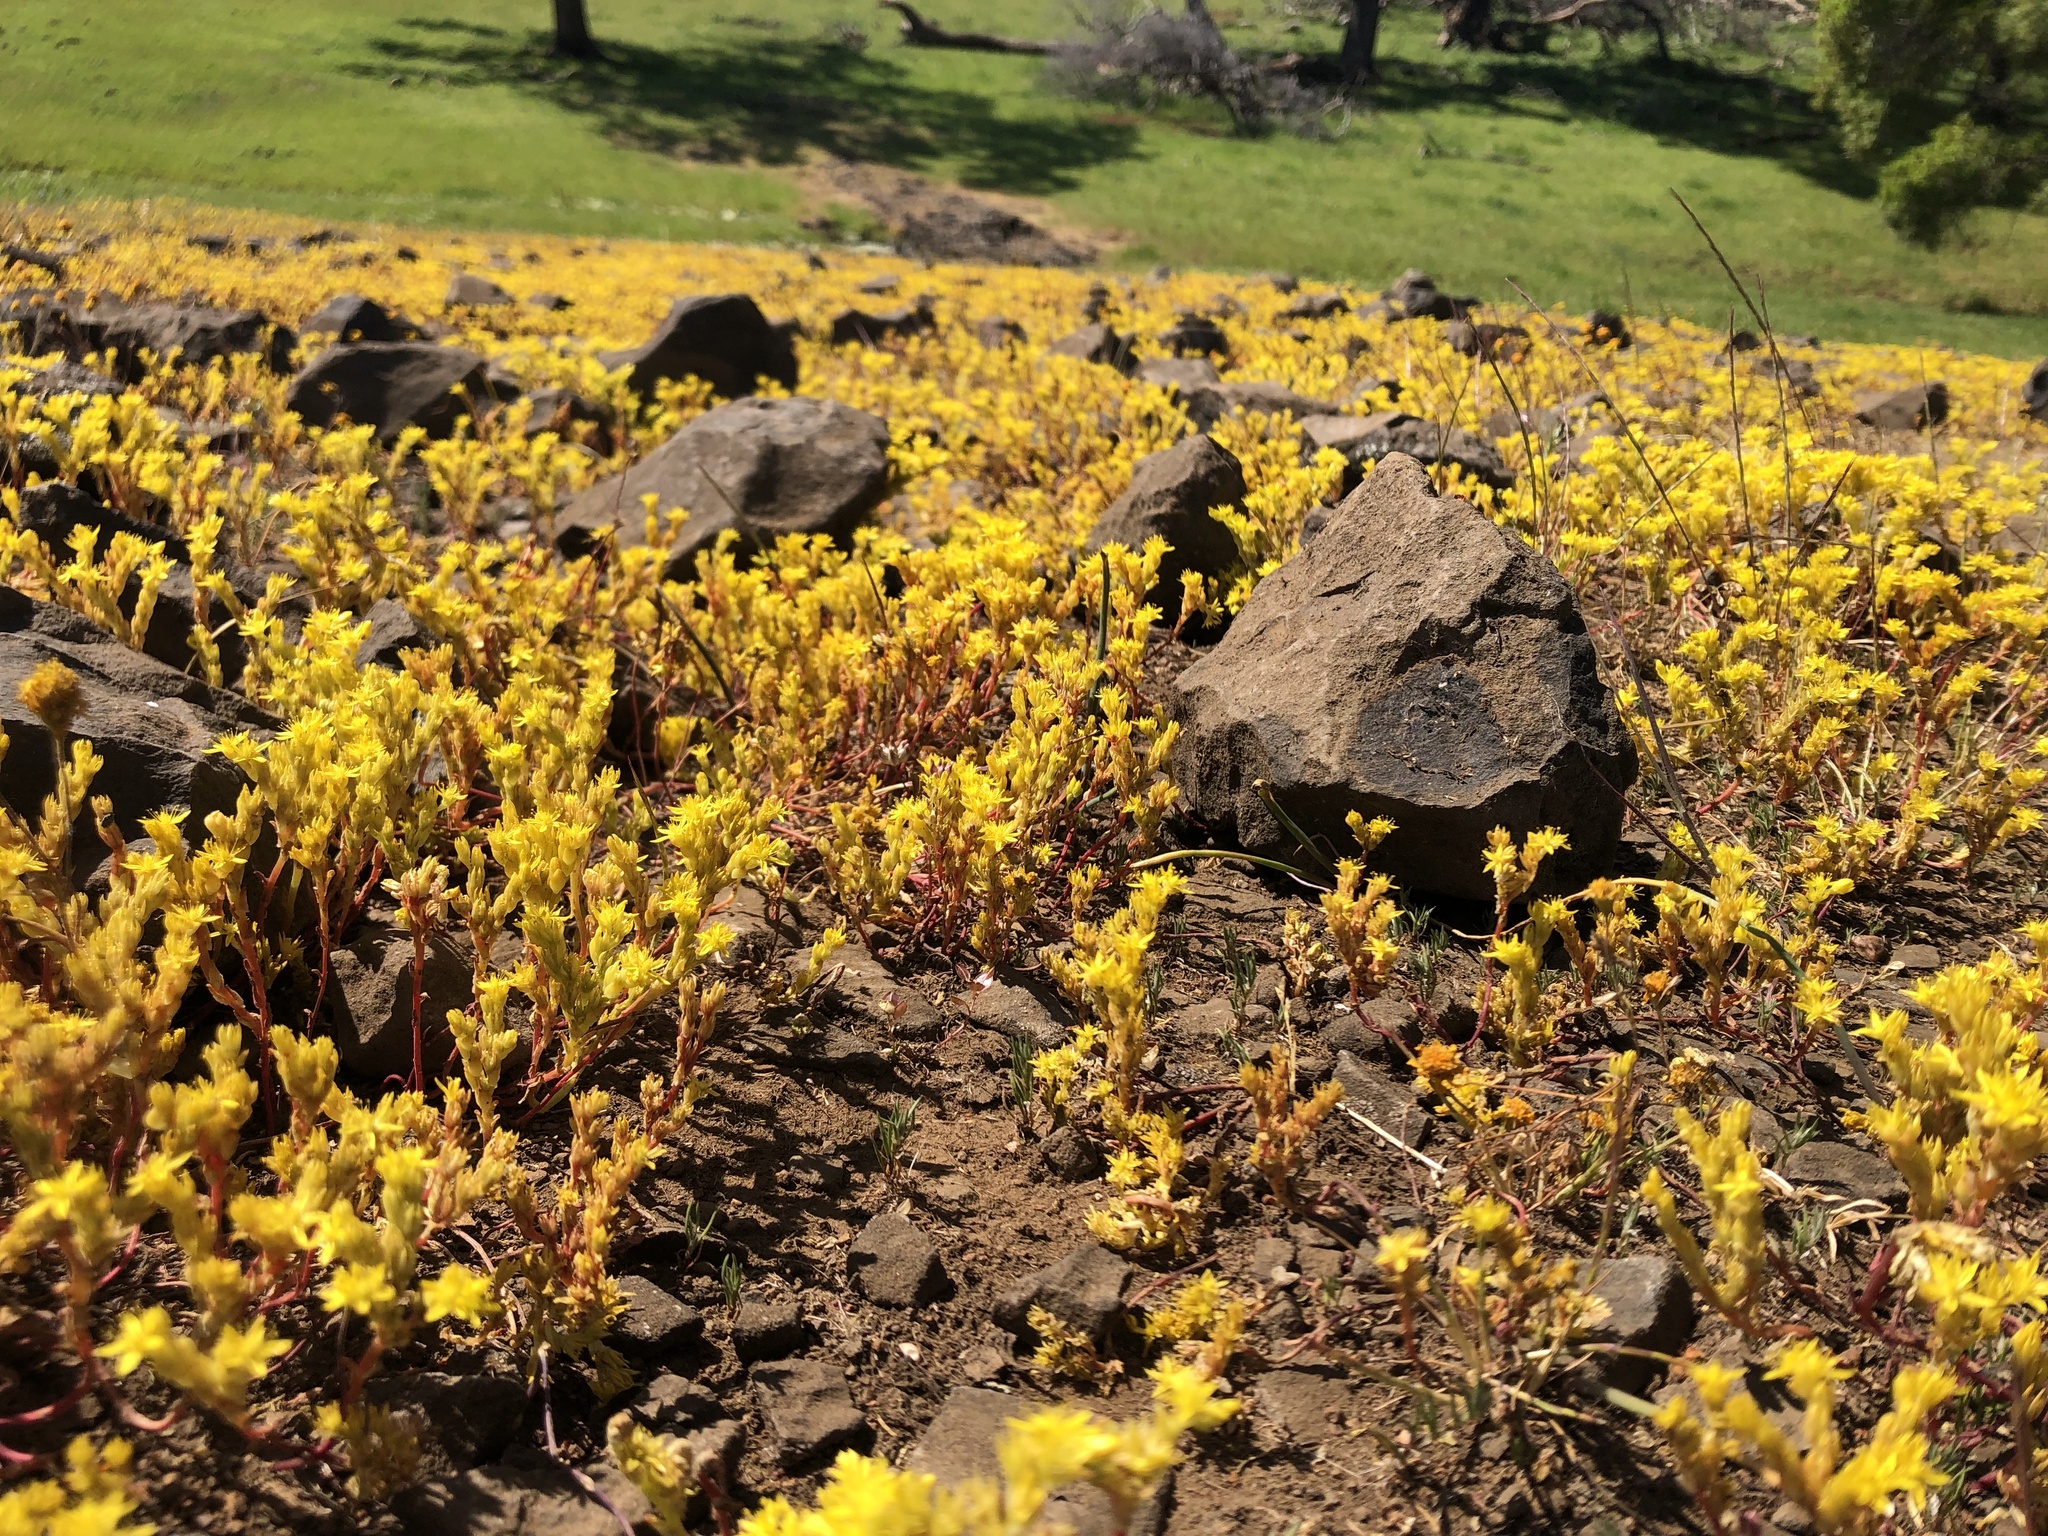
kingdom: Plantae
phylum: Tracheophyta
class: Magnoliopsida
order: Saxifragales
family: Crassulaceae
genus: Sedella
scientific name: Sedella pumila
